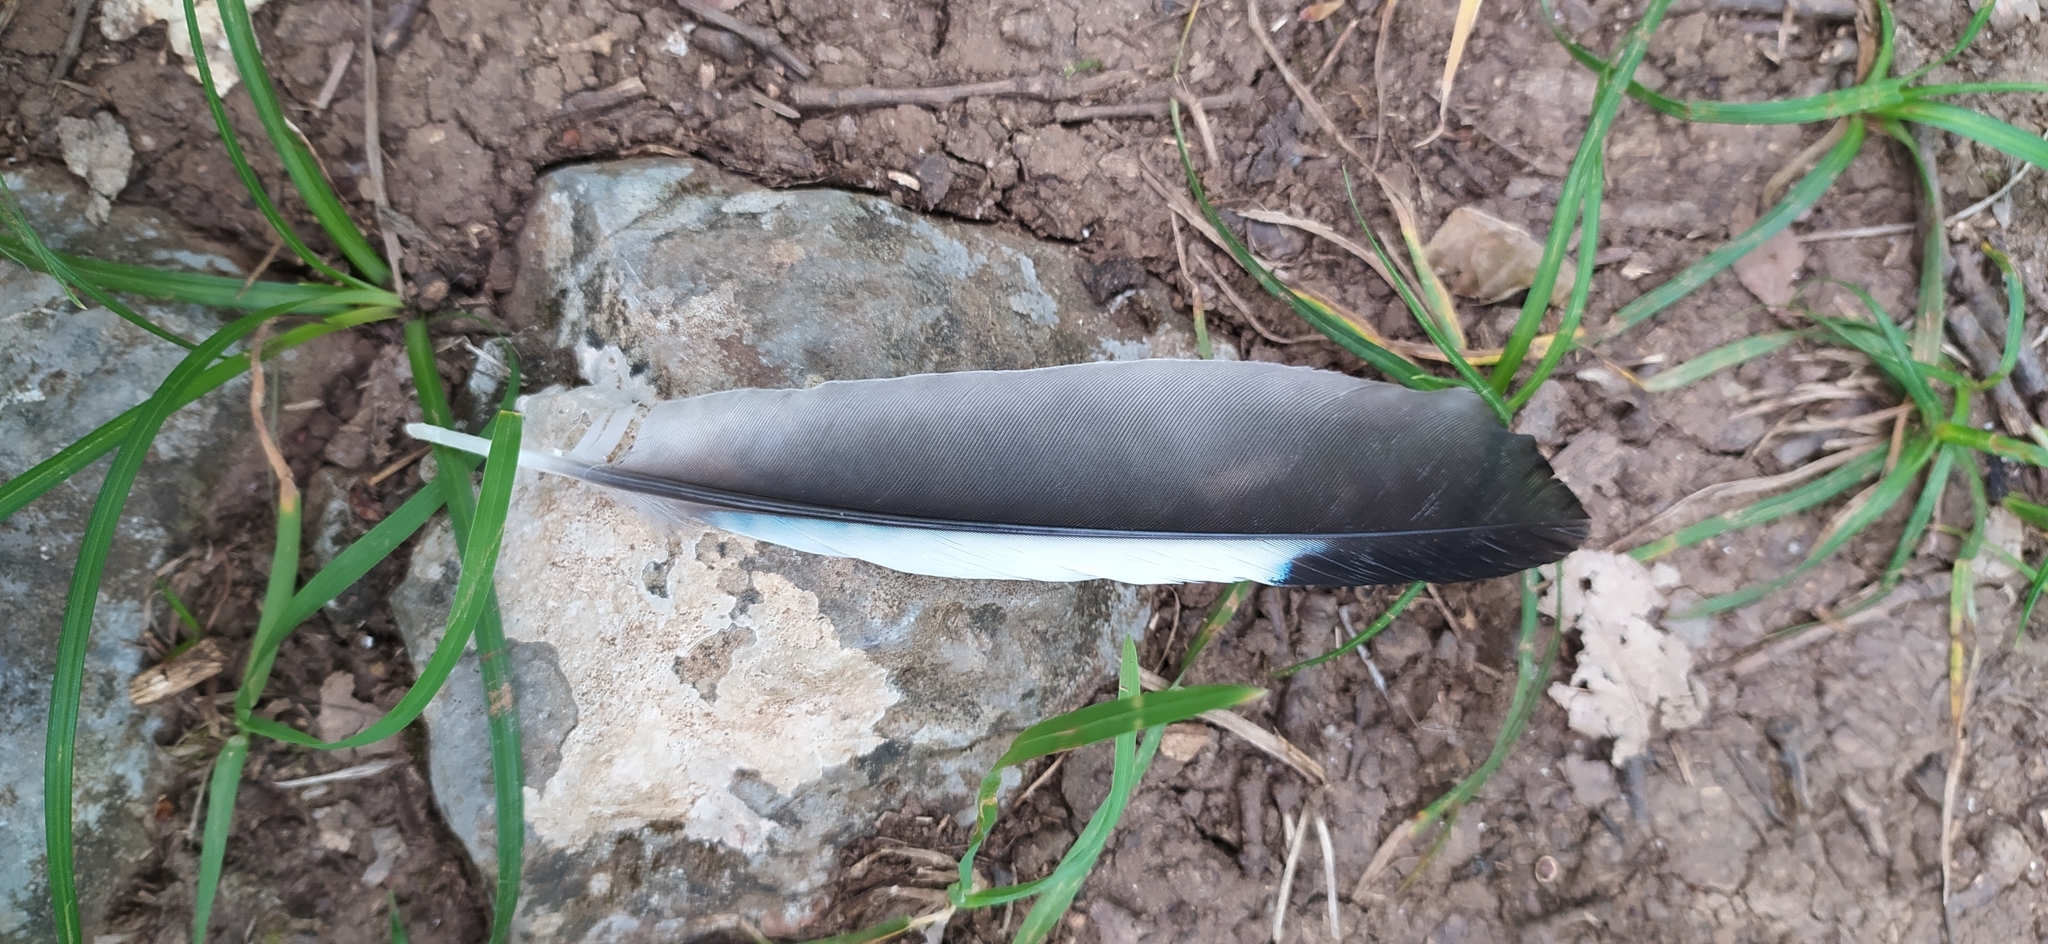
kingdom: Animalia
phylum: Chordata
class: Aves
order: Passeriformes
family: Corvidae
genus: Garrulus
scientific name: Garrulus glandarius
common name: Eurasian jay
